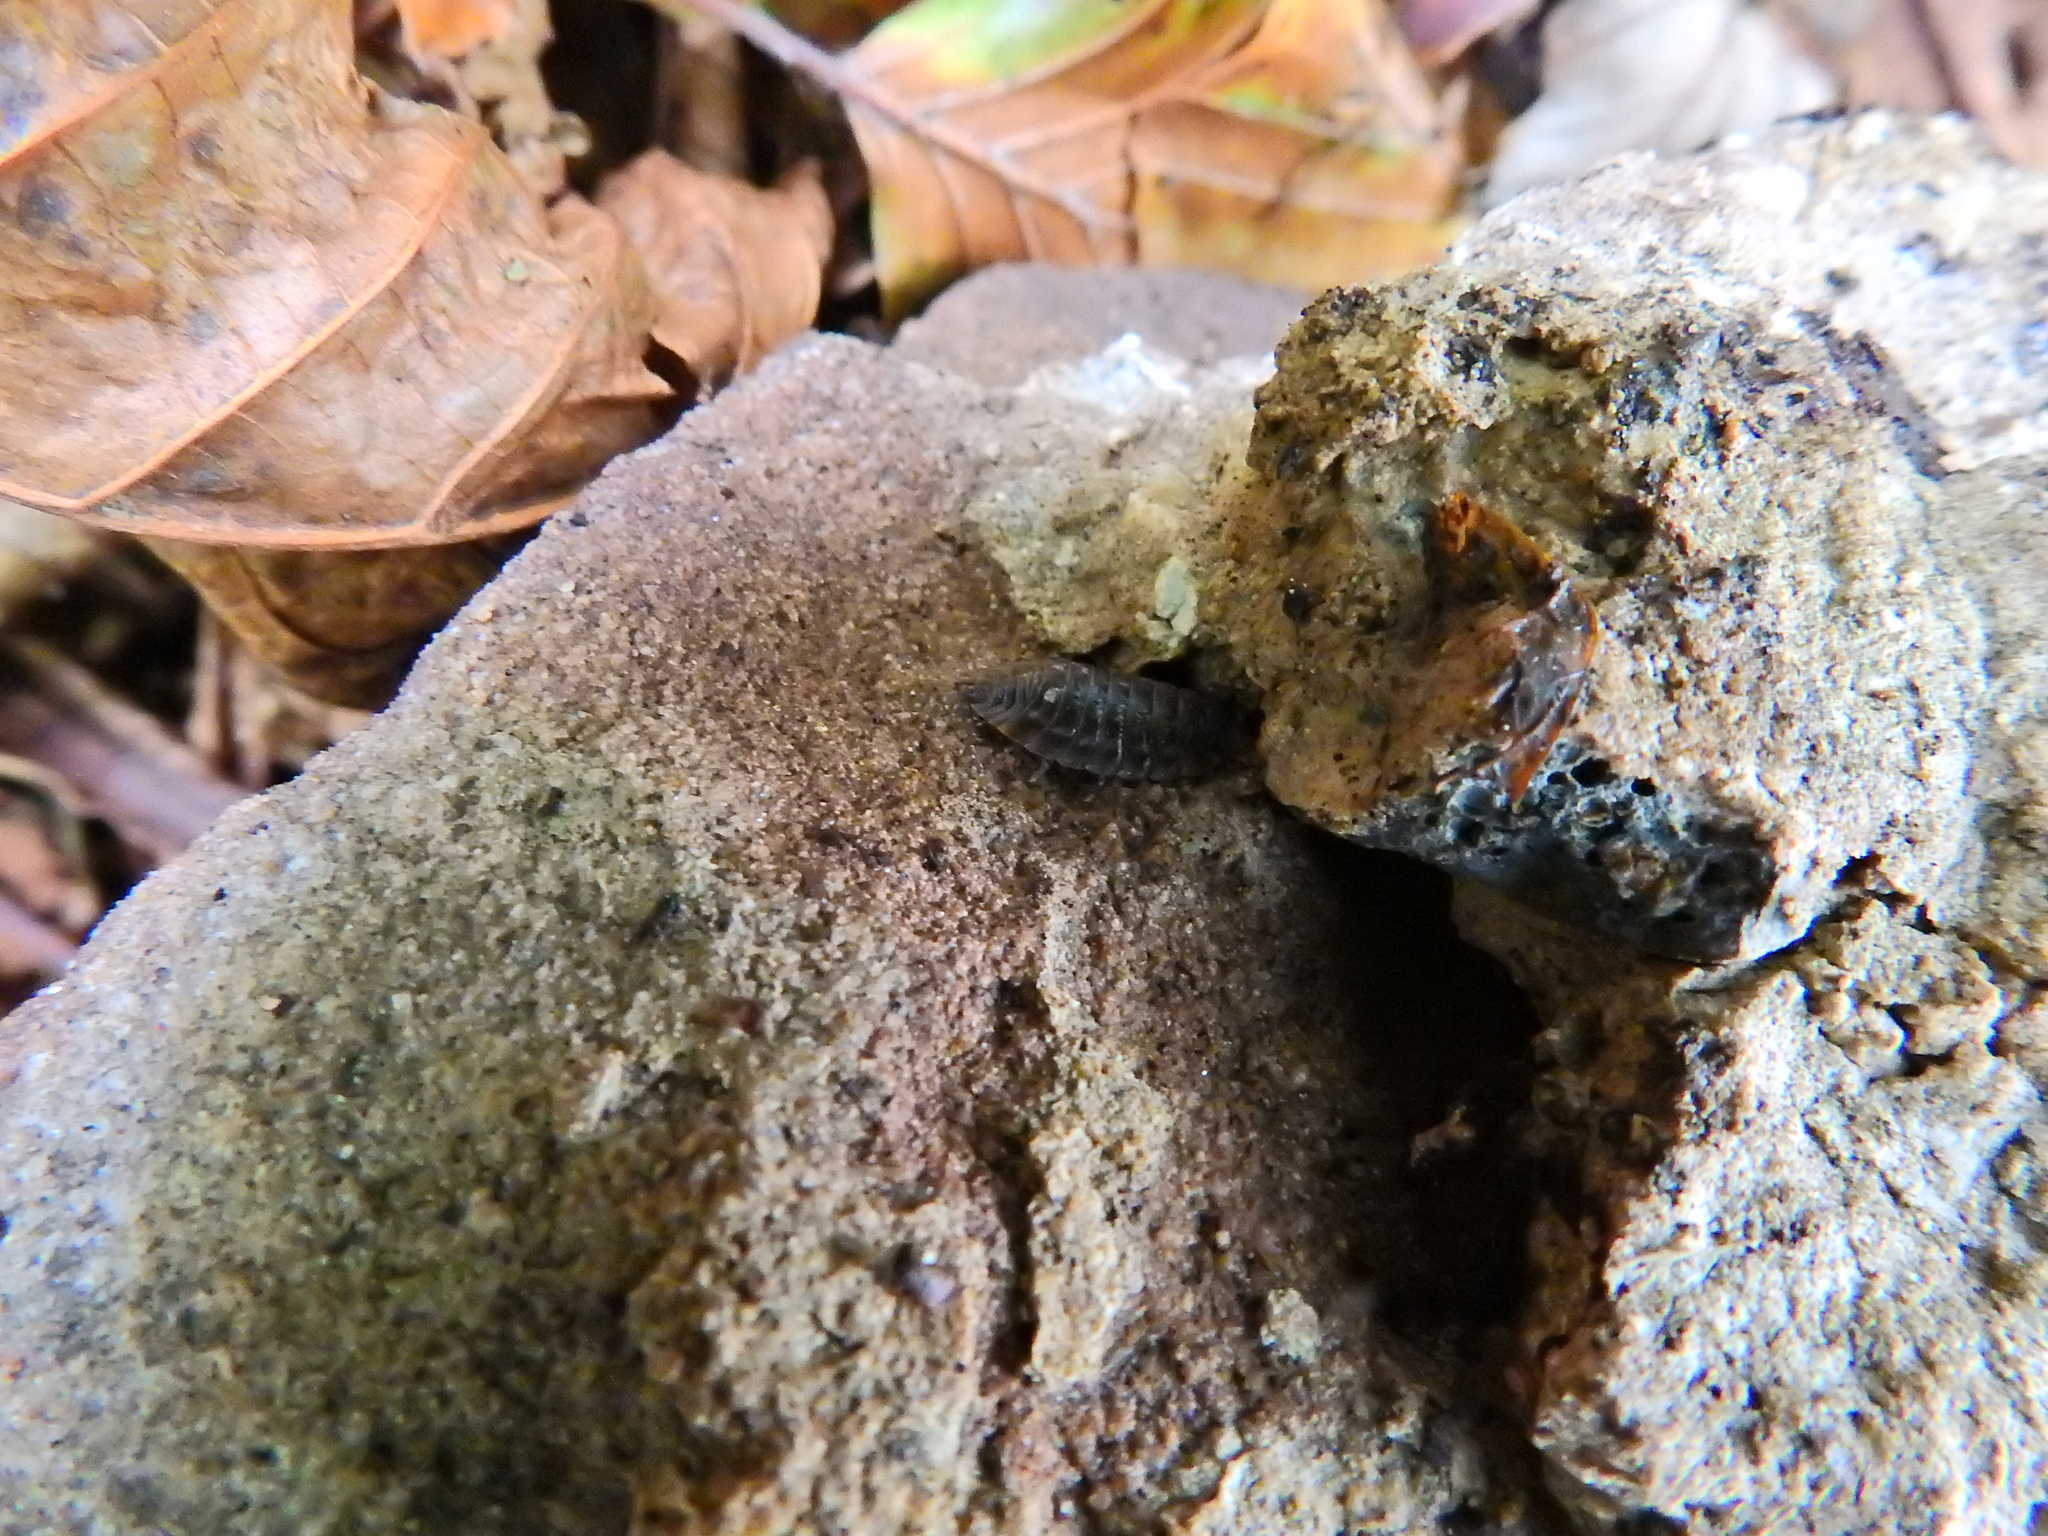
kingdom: Animalia
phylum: Arthropoda
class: Malacostraca
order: Isopoda
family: Oniscidae
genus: Oniscus
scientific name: Oniscus asellus
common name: Common shiny woodlouse
